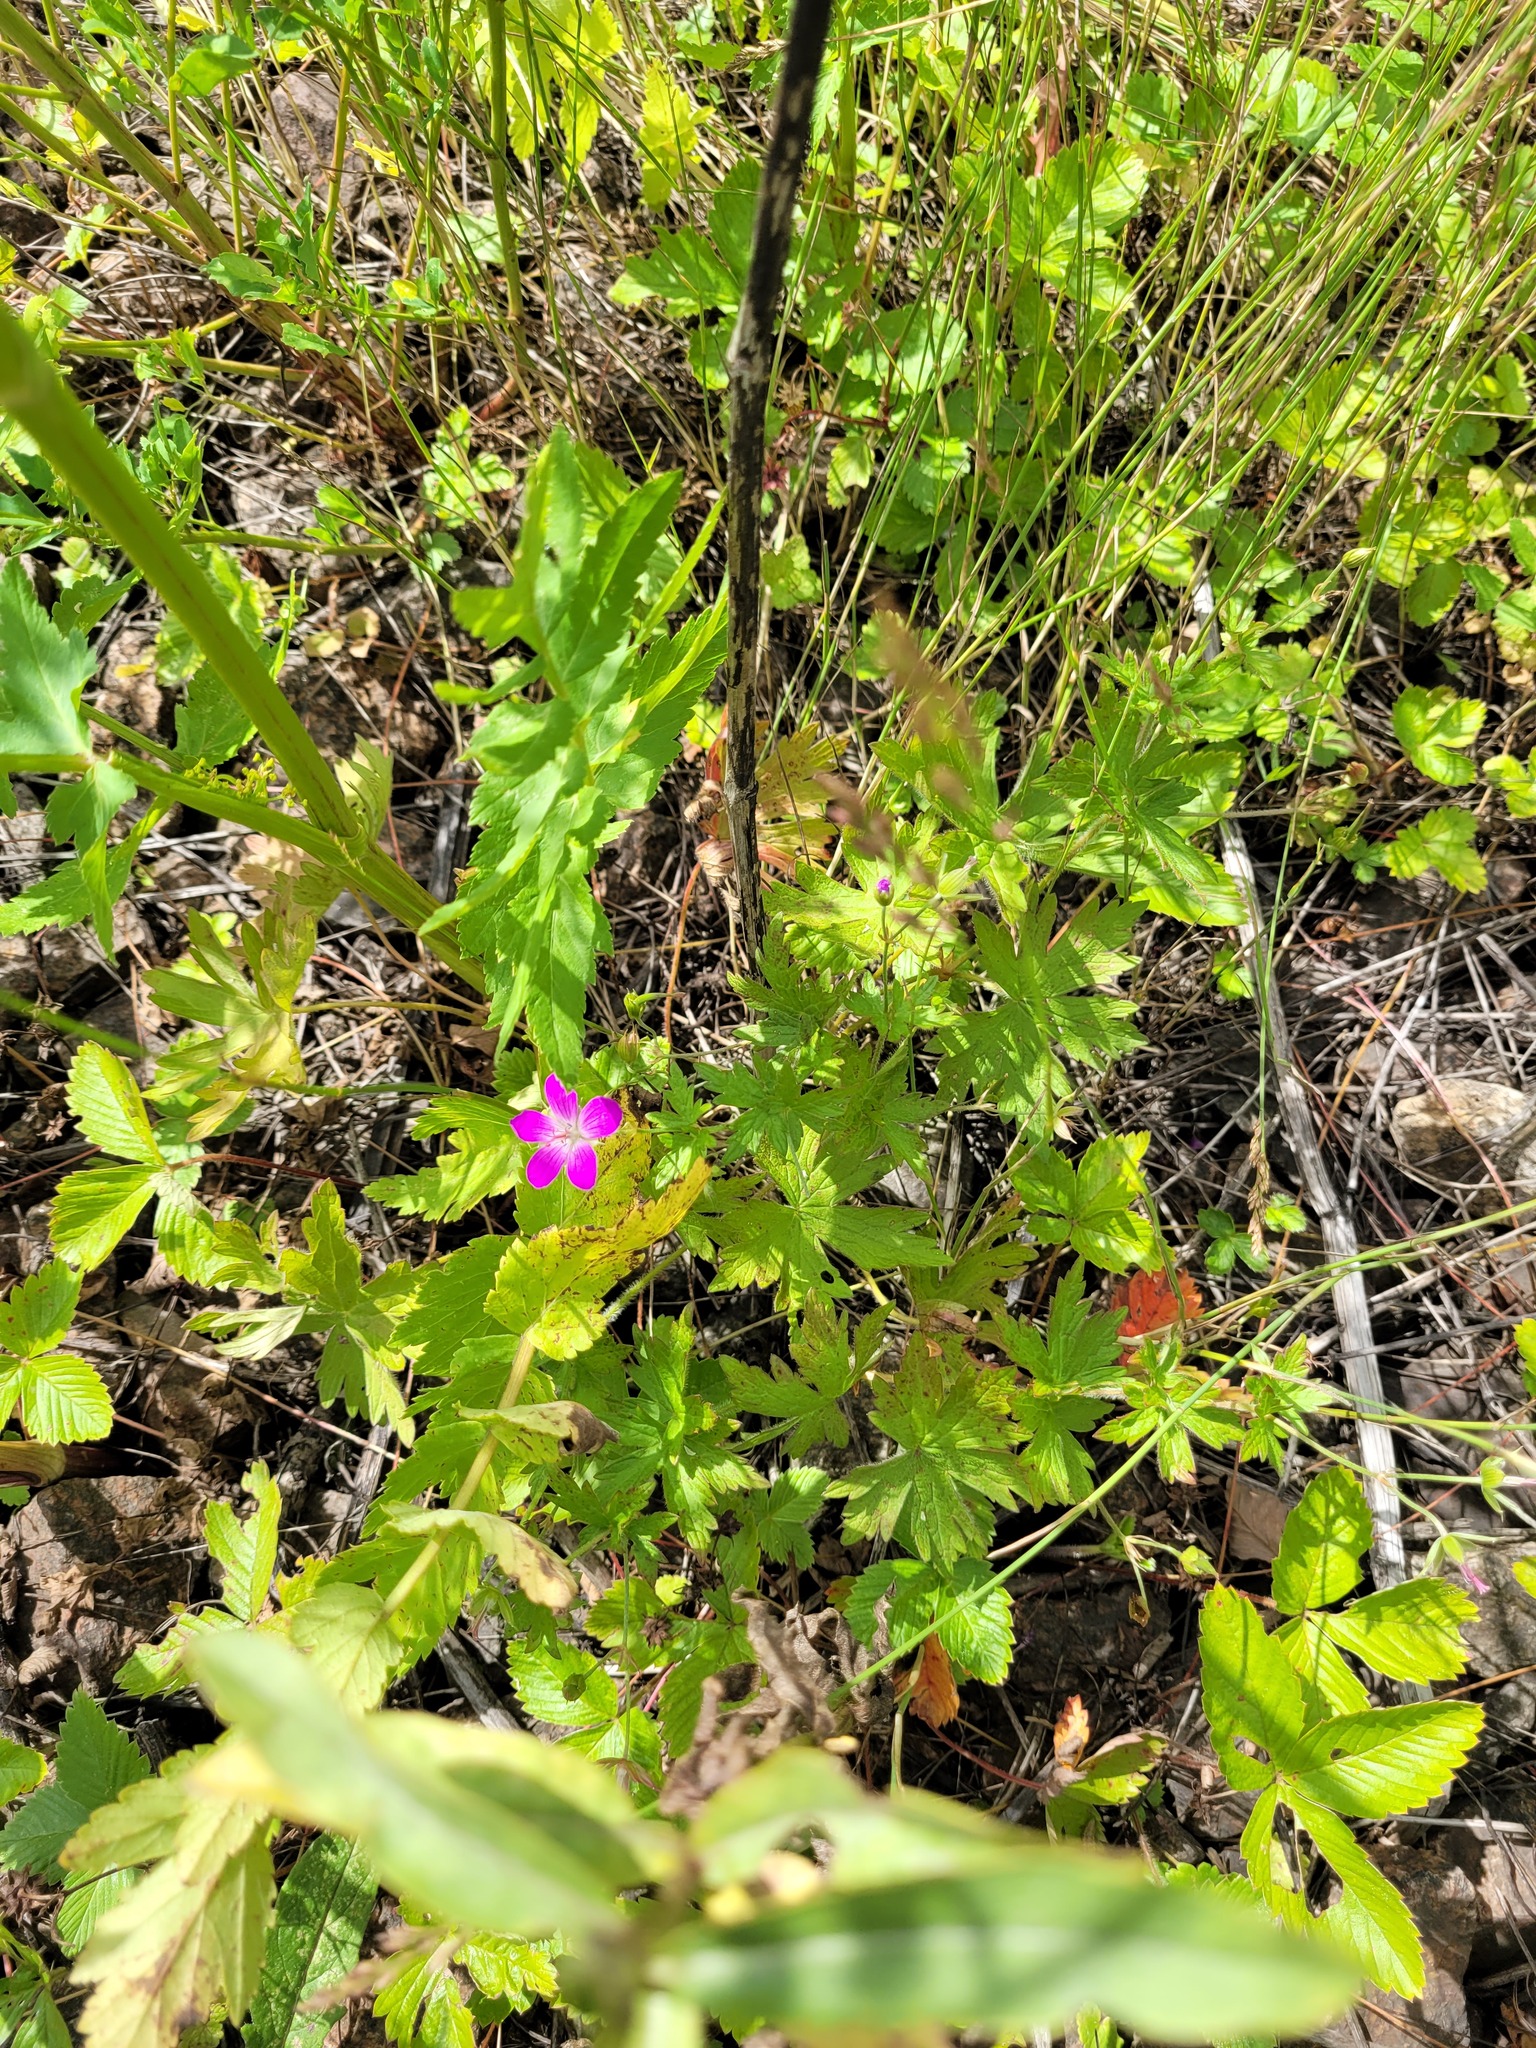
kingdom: Plantae
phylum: Tracheophyta
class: Magnoliopsida
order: Geraniales
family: Geraniaceae
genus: Geranium
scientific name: Geranium palustre
